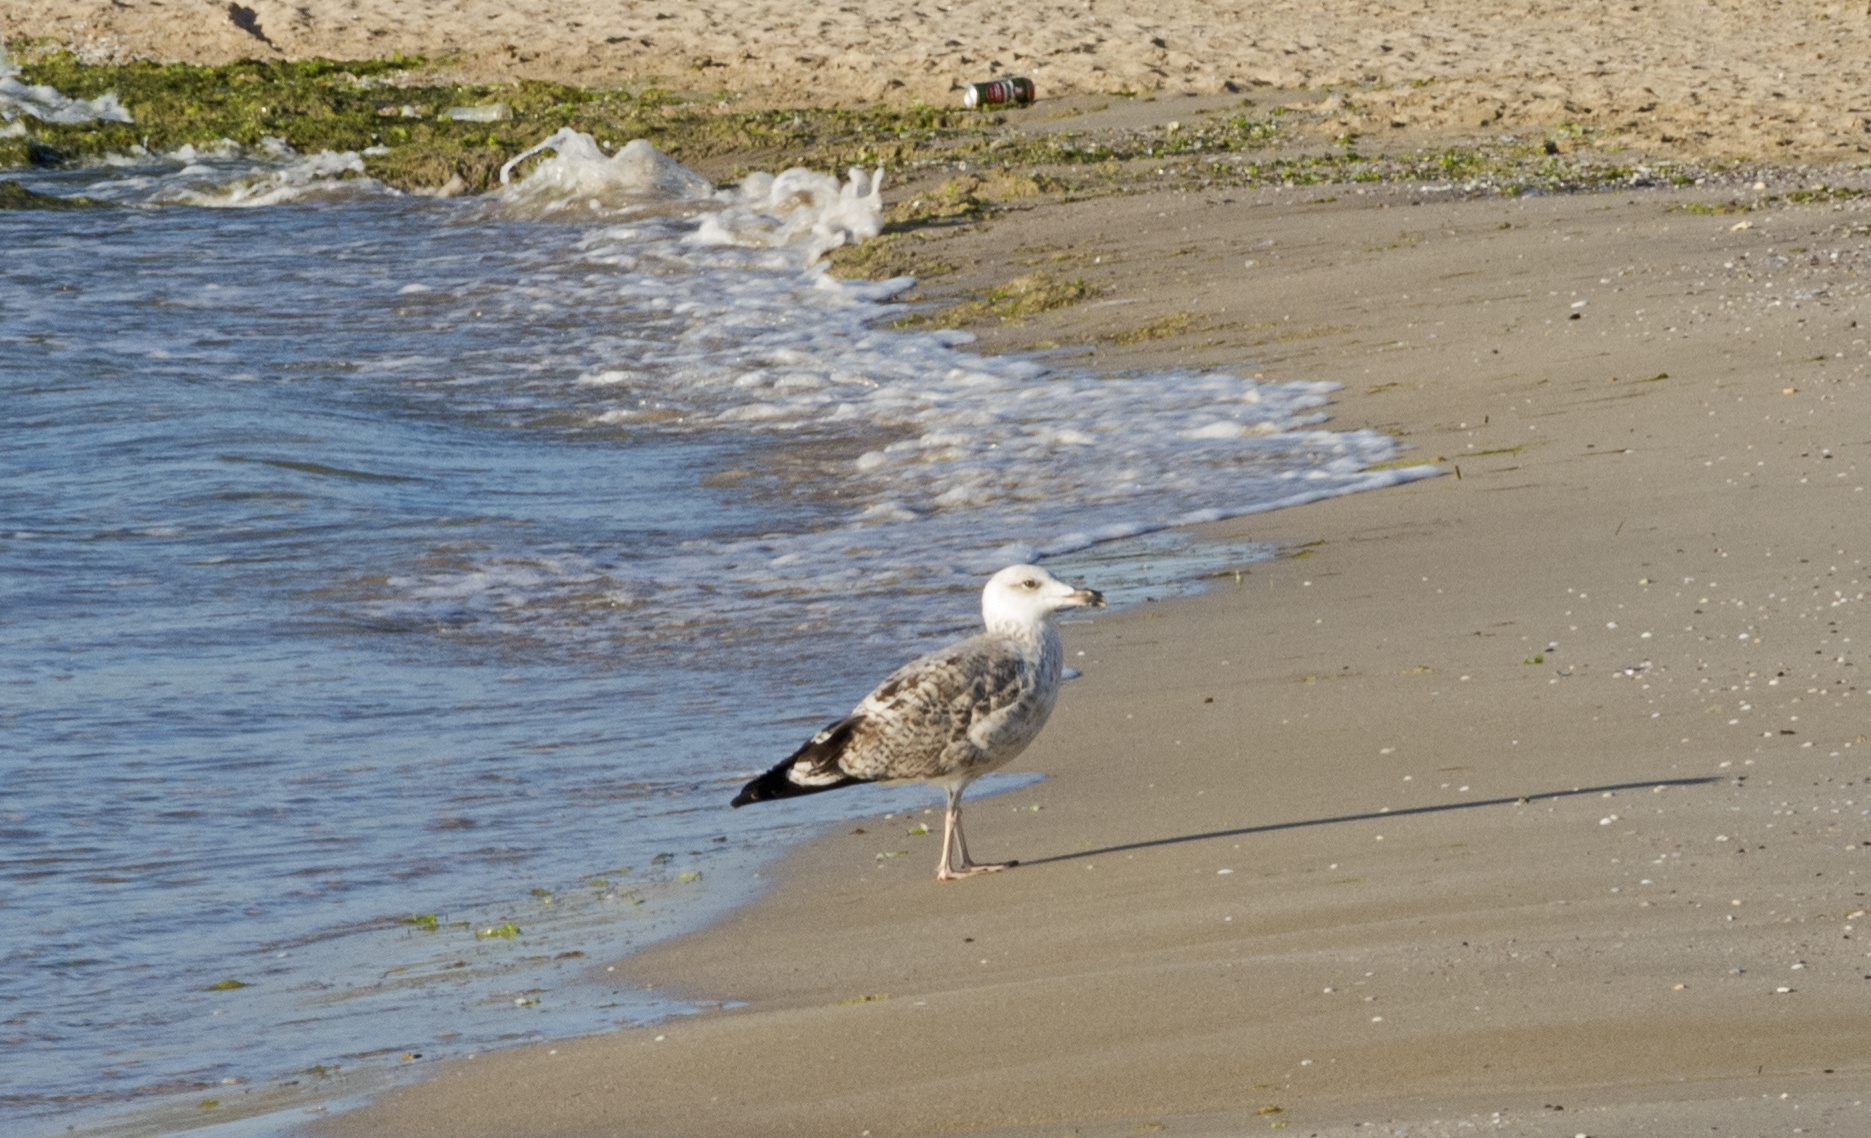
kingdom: Animalia
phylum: Chordata
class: Aves
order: Charadriiformes
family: Laridae
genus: Larus
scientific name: Larus michahellis
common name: Yellow-legged gull
